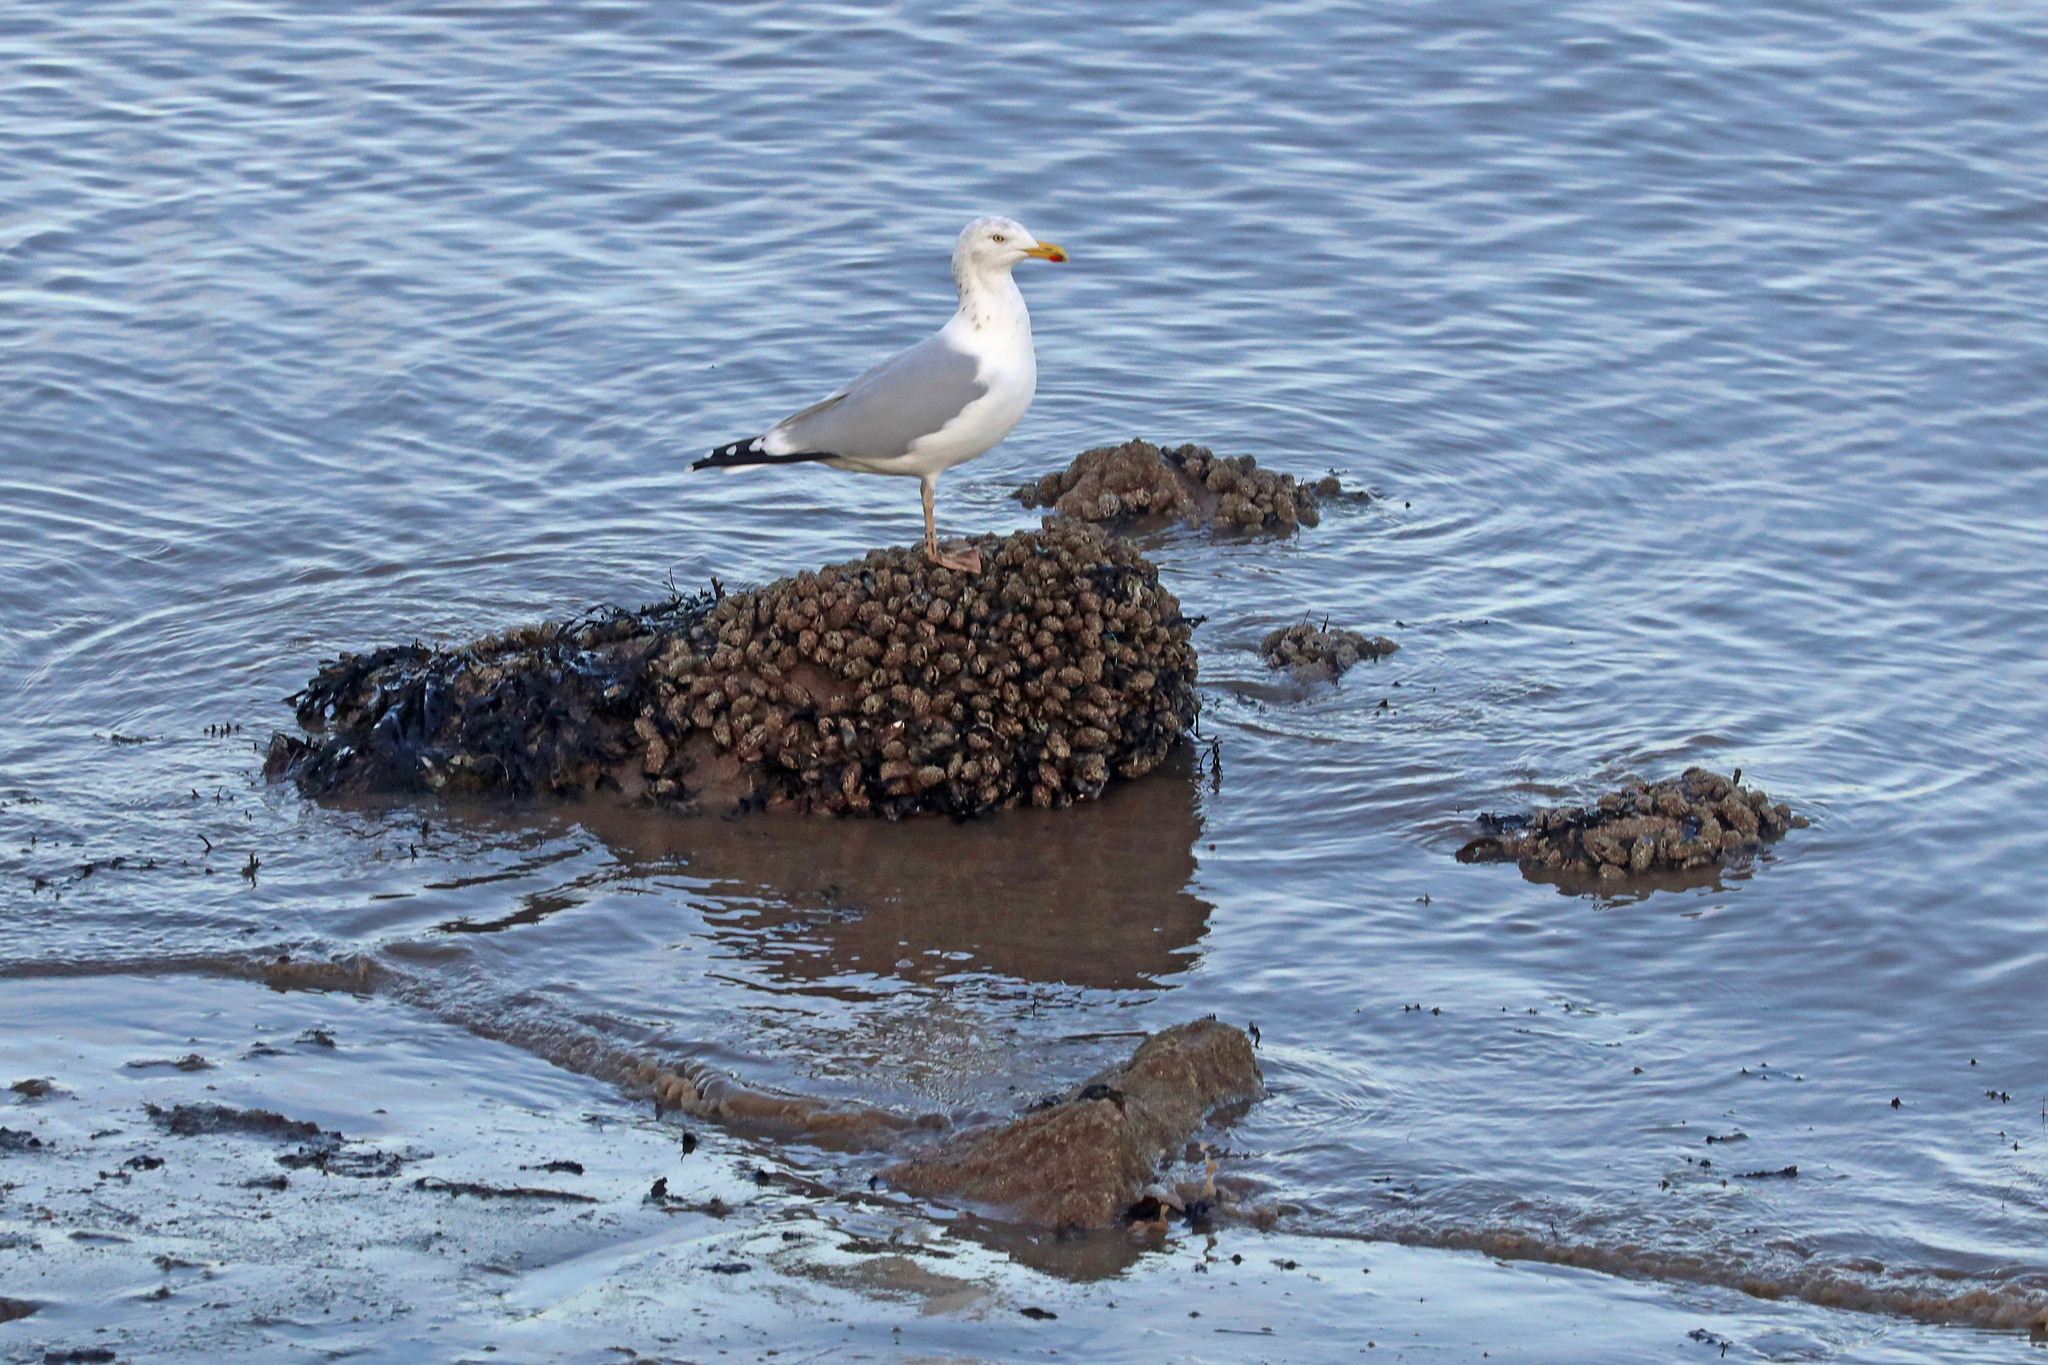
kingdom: Animalia
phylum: Mollusca
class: Bivalvia
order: Mytilida
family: Mytilidae
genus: Mytilus
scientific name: Mytilus edulis
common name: Blue mussel
